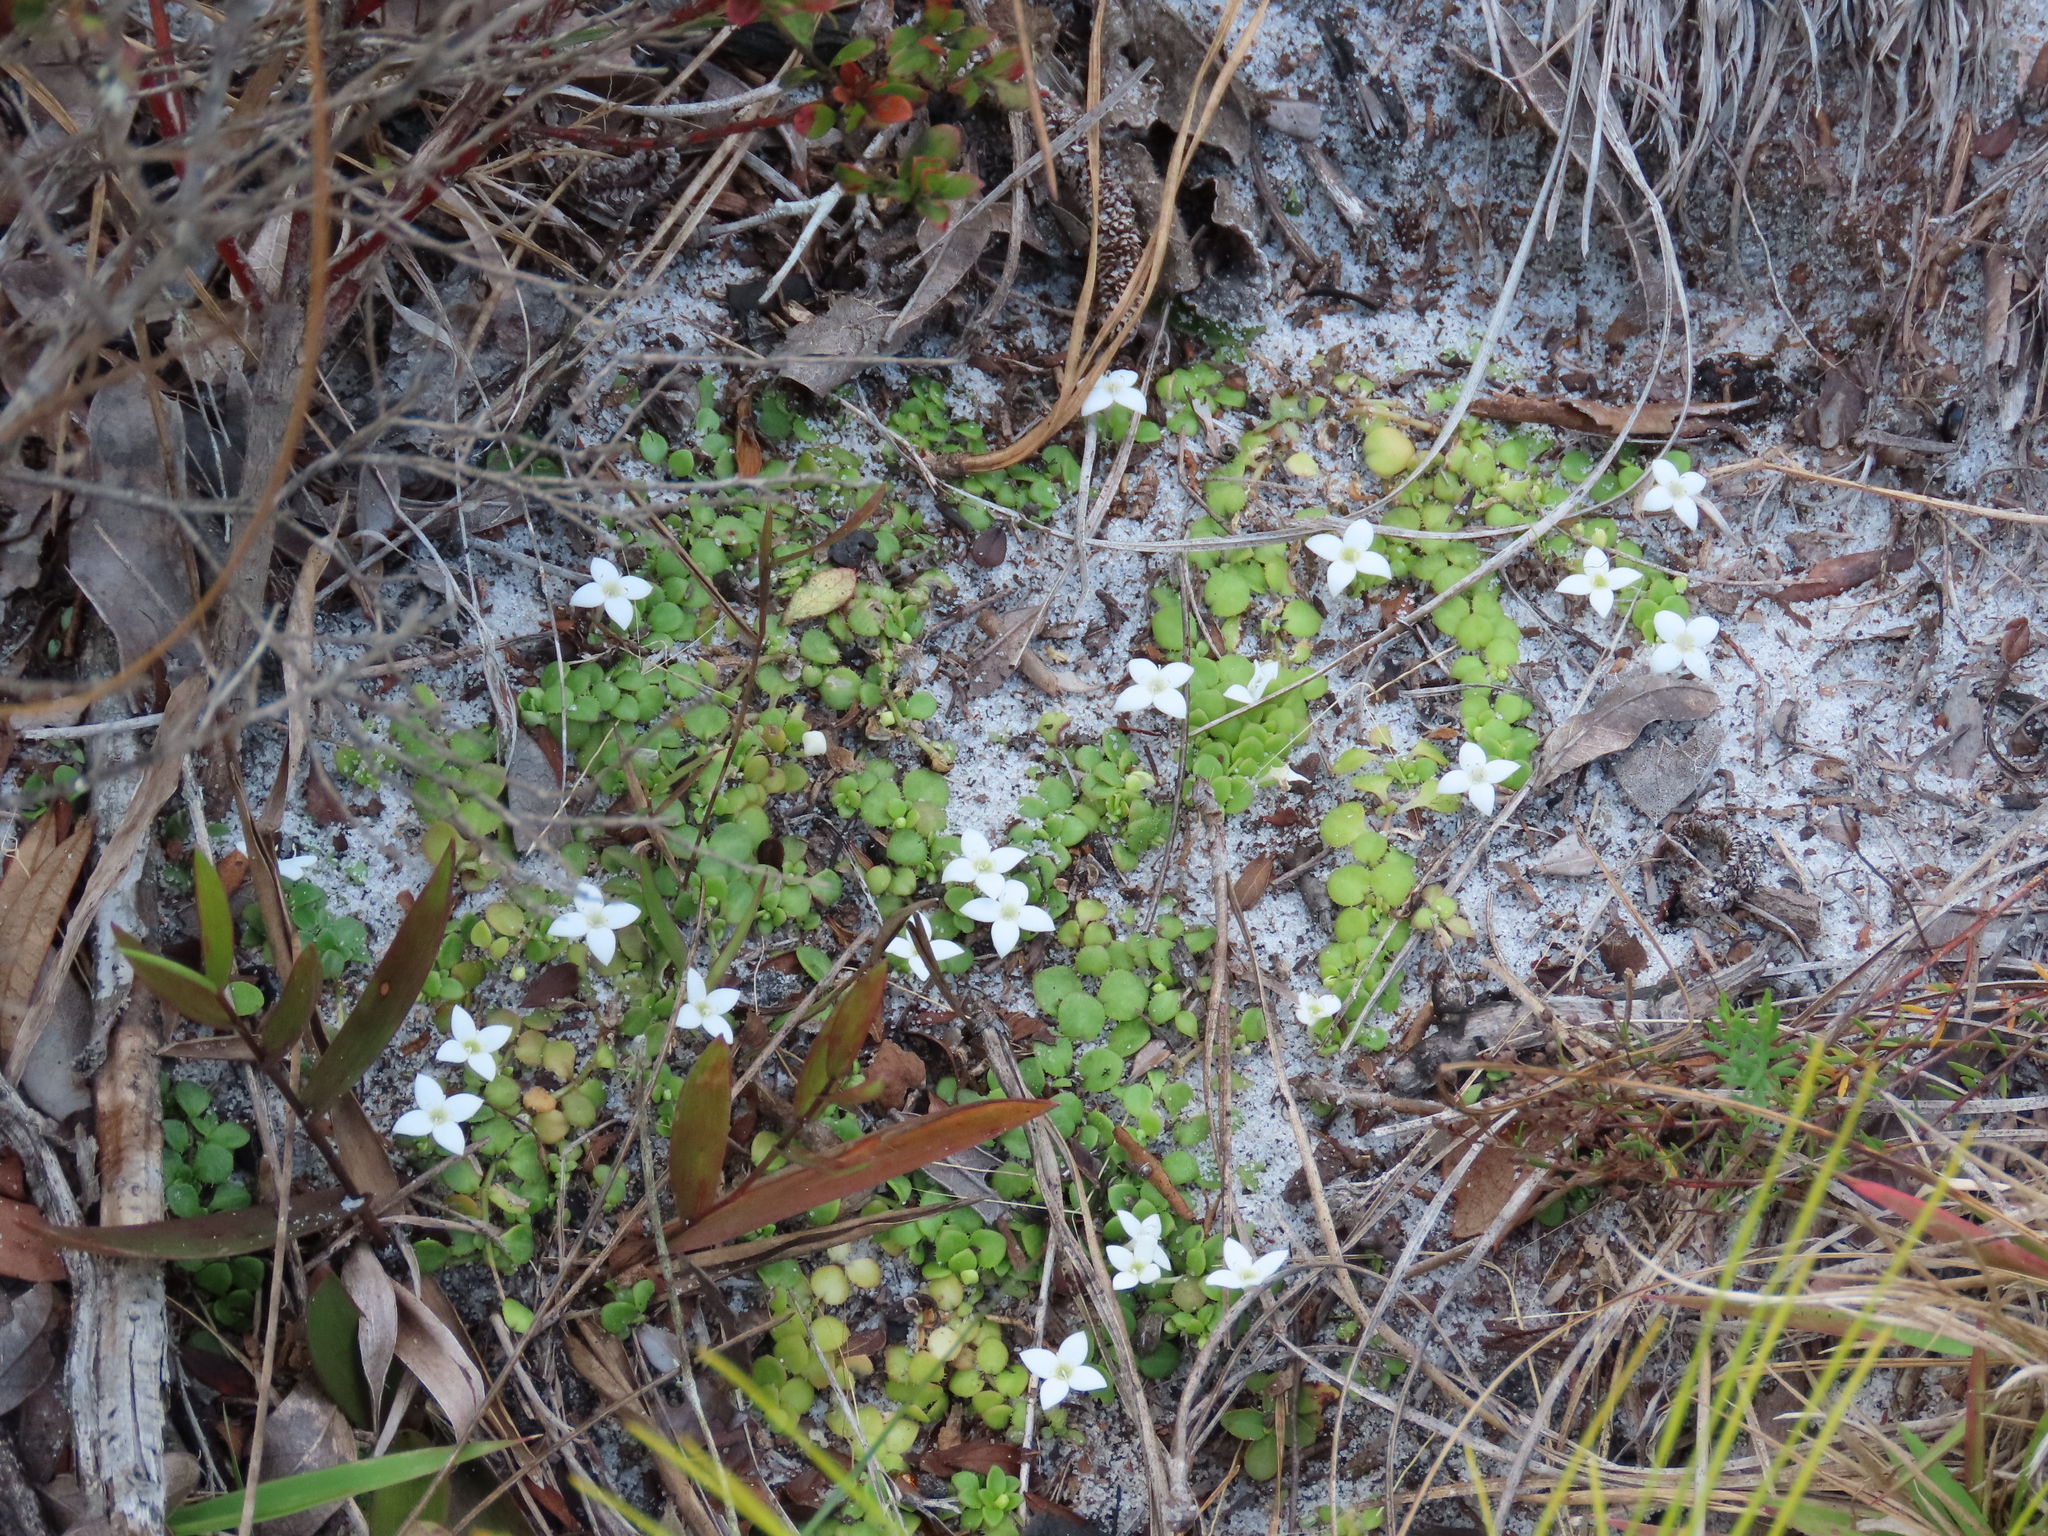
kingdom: Plantae
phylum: Tracheophyta
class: Magnoliopsida
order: Gentianales
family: Rubiaceae
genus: Houstonia
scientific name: Houstonia procumbens
